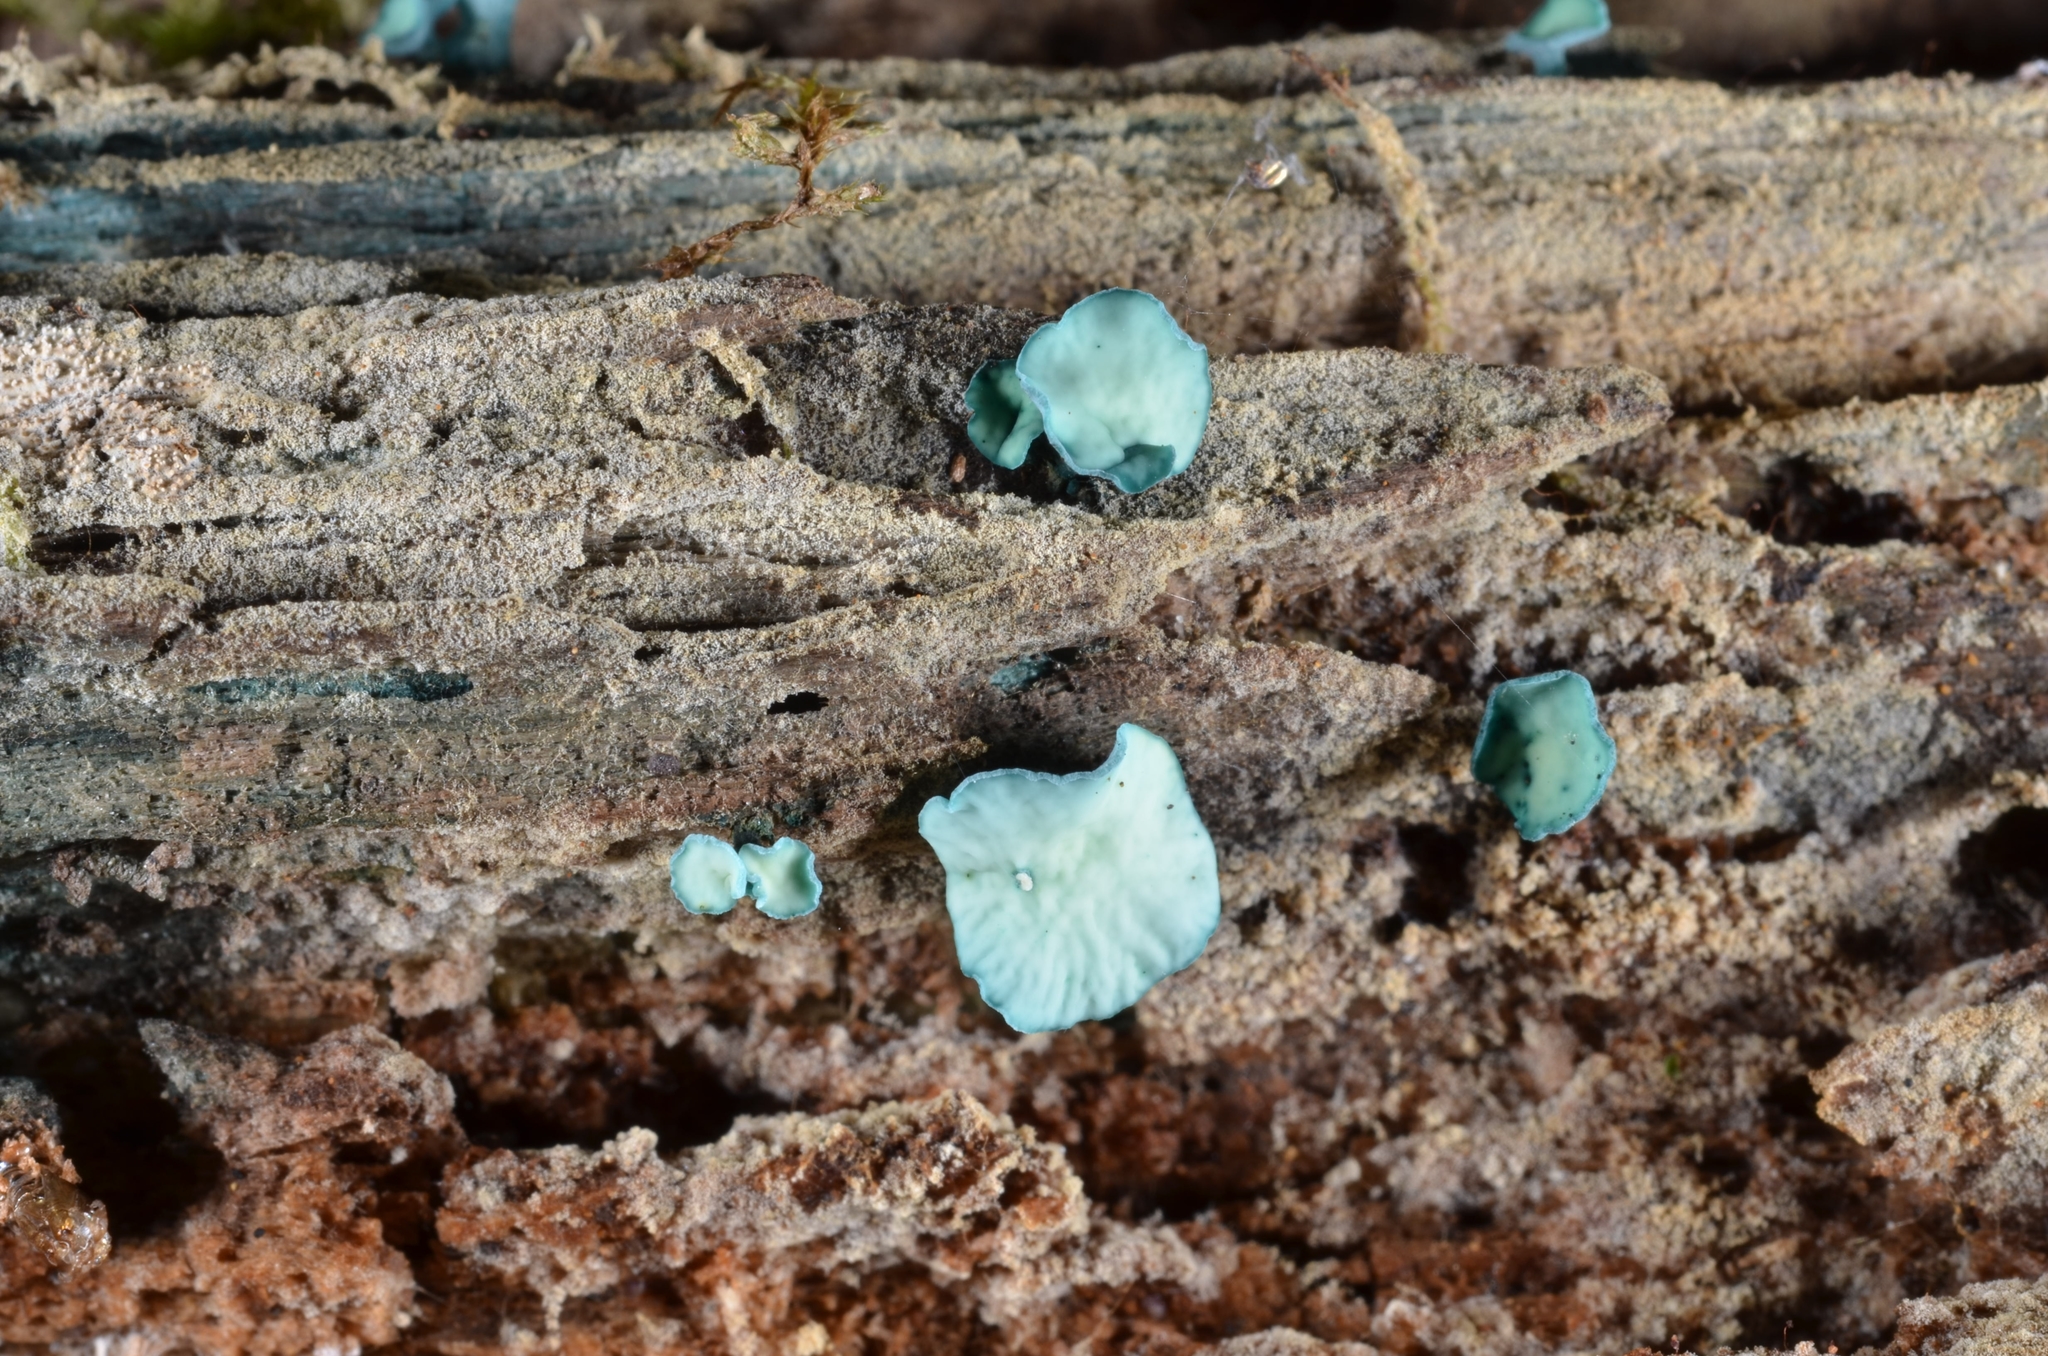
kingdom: Fungi
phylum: Ascomycota
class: Leotiomycetes
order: Helotiales
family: Chlorociboriaceae
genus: Chlorociboria
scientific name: Chlorociboria aeruginascens
